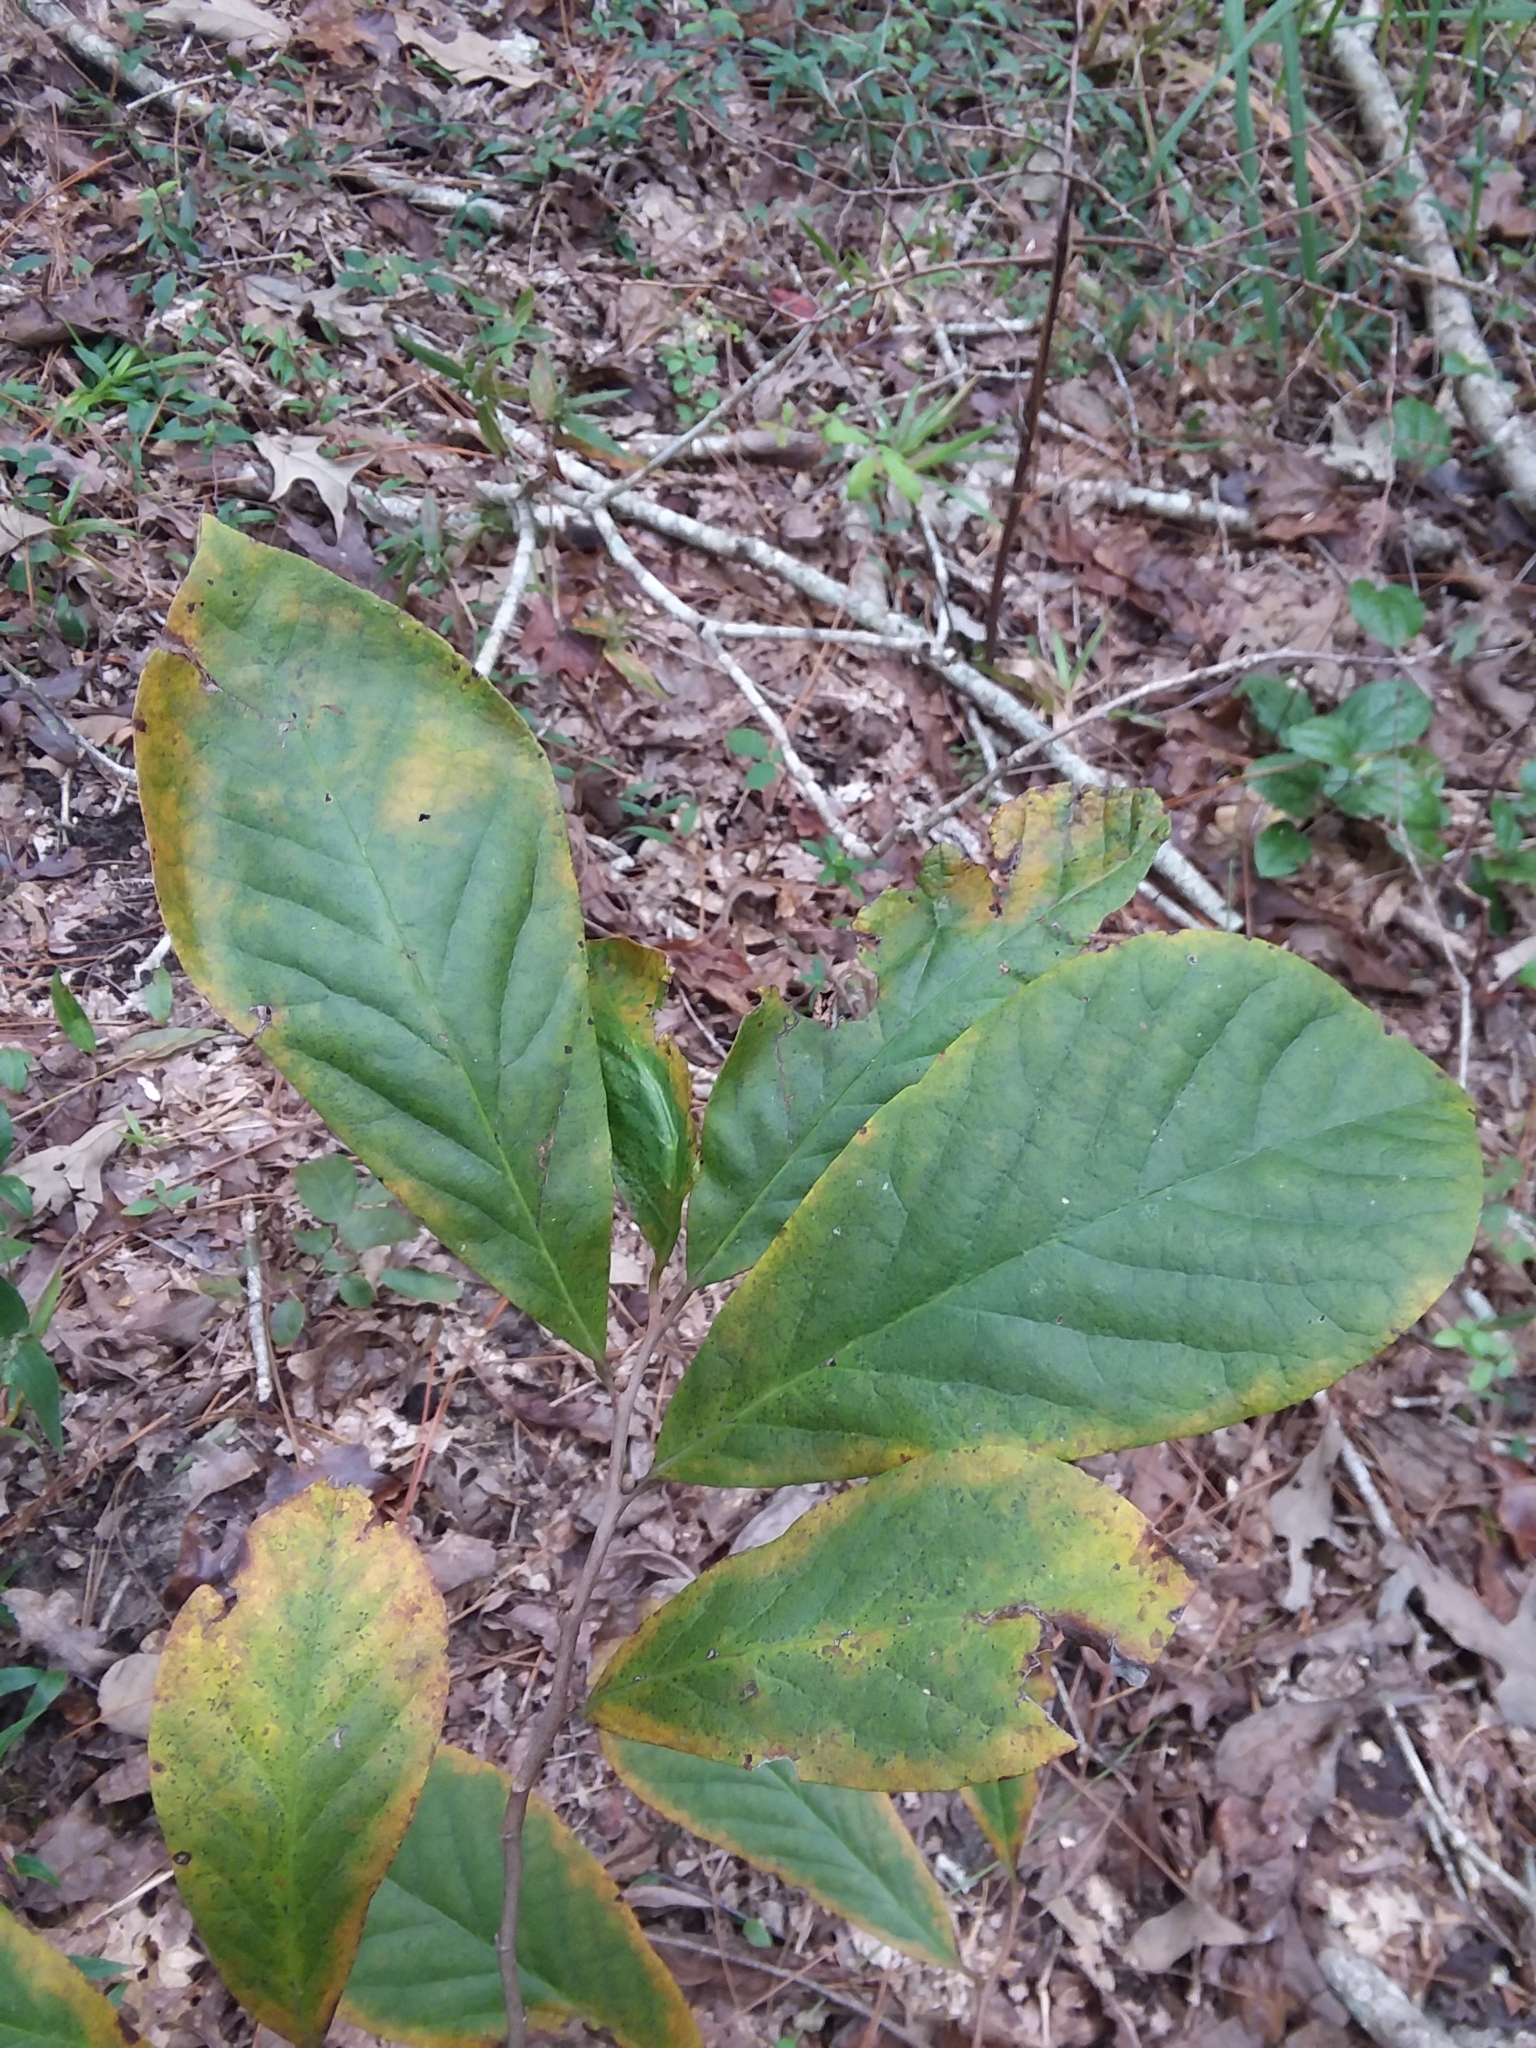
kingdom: Plantae
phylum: Tracheophyta
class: Magnoliopsida
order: Magnoliales
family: Annonaceae
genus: Asimina
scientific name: Asimina parviflora
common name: Dwarf pawpaw
